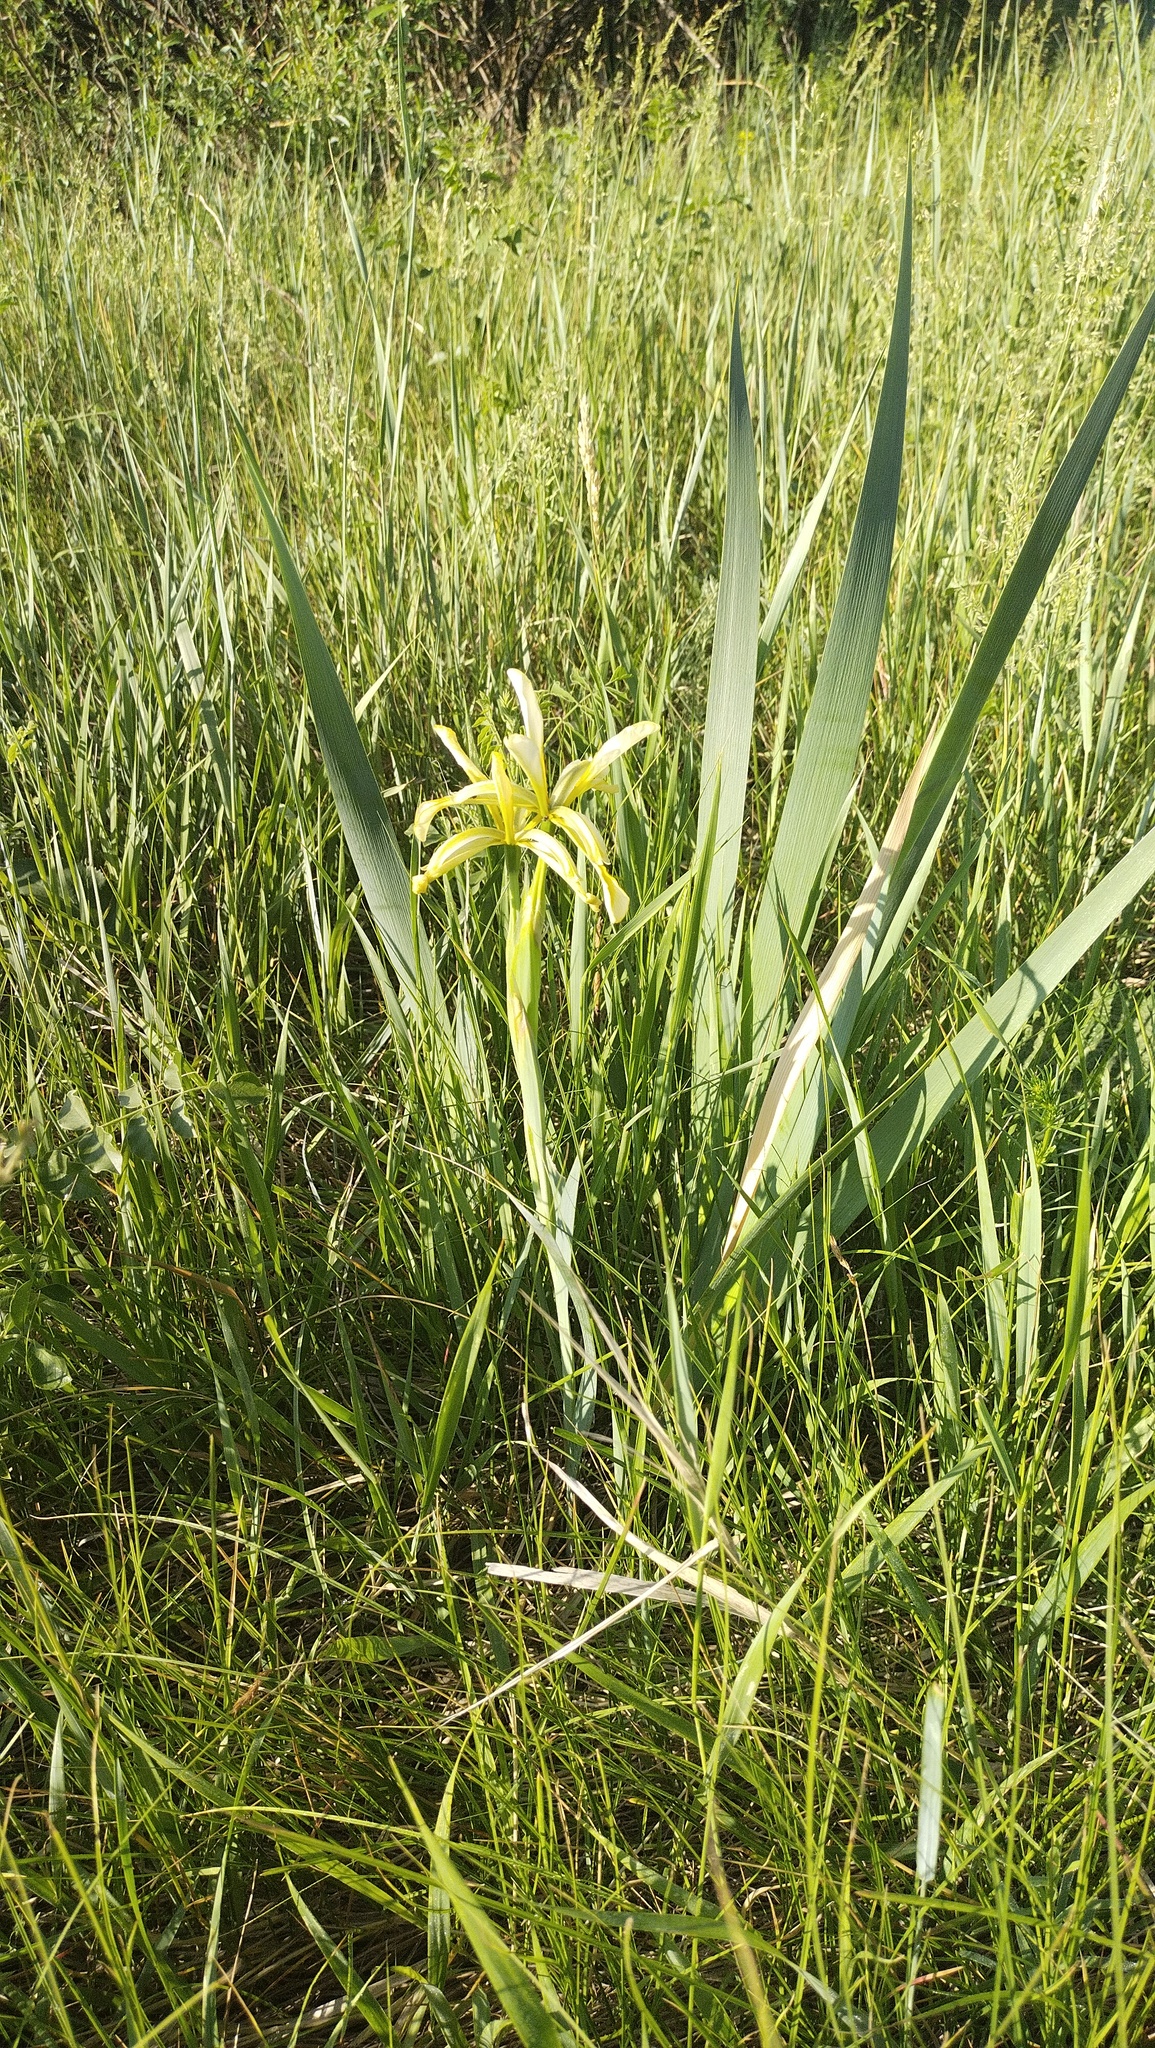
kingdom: Plantae
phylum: Tracheophyta
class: Liliopsida
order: Asparagales
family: Iridaceae
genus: Iris
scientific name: Iris halophila
